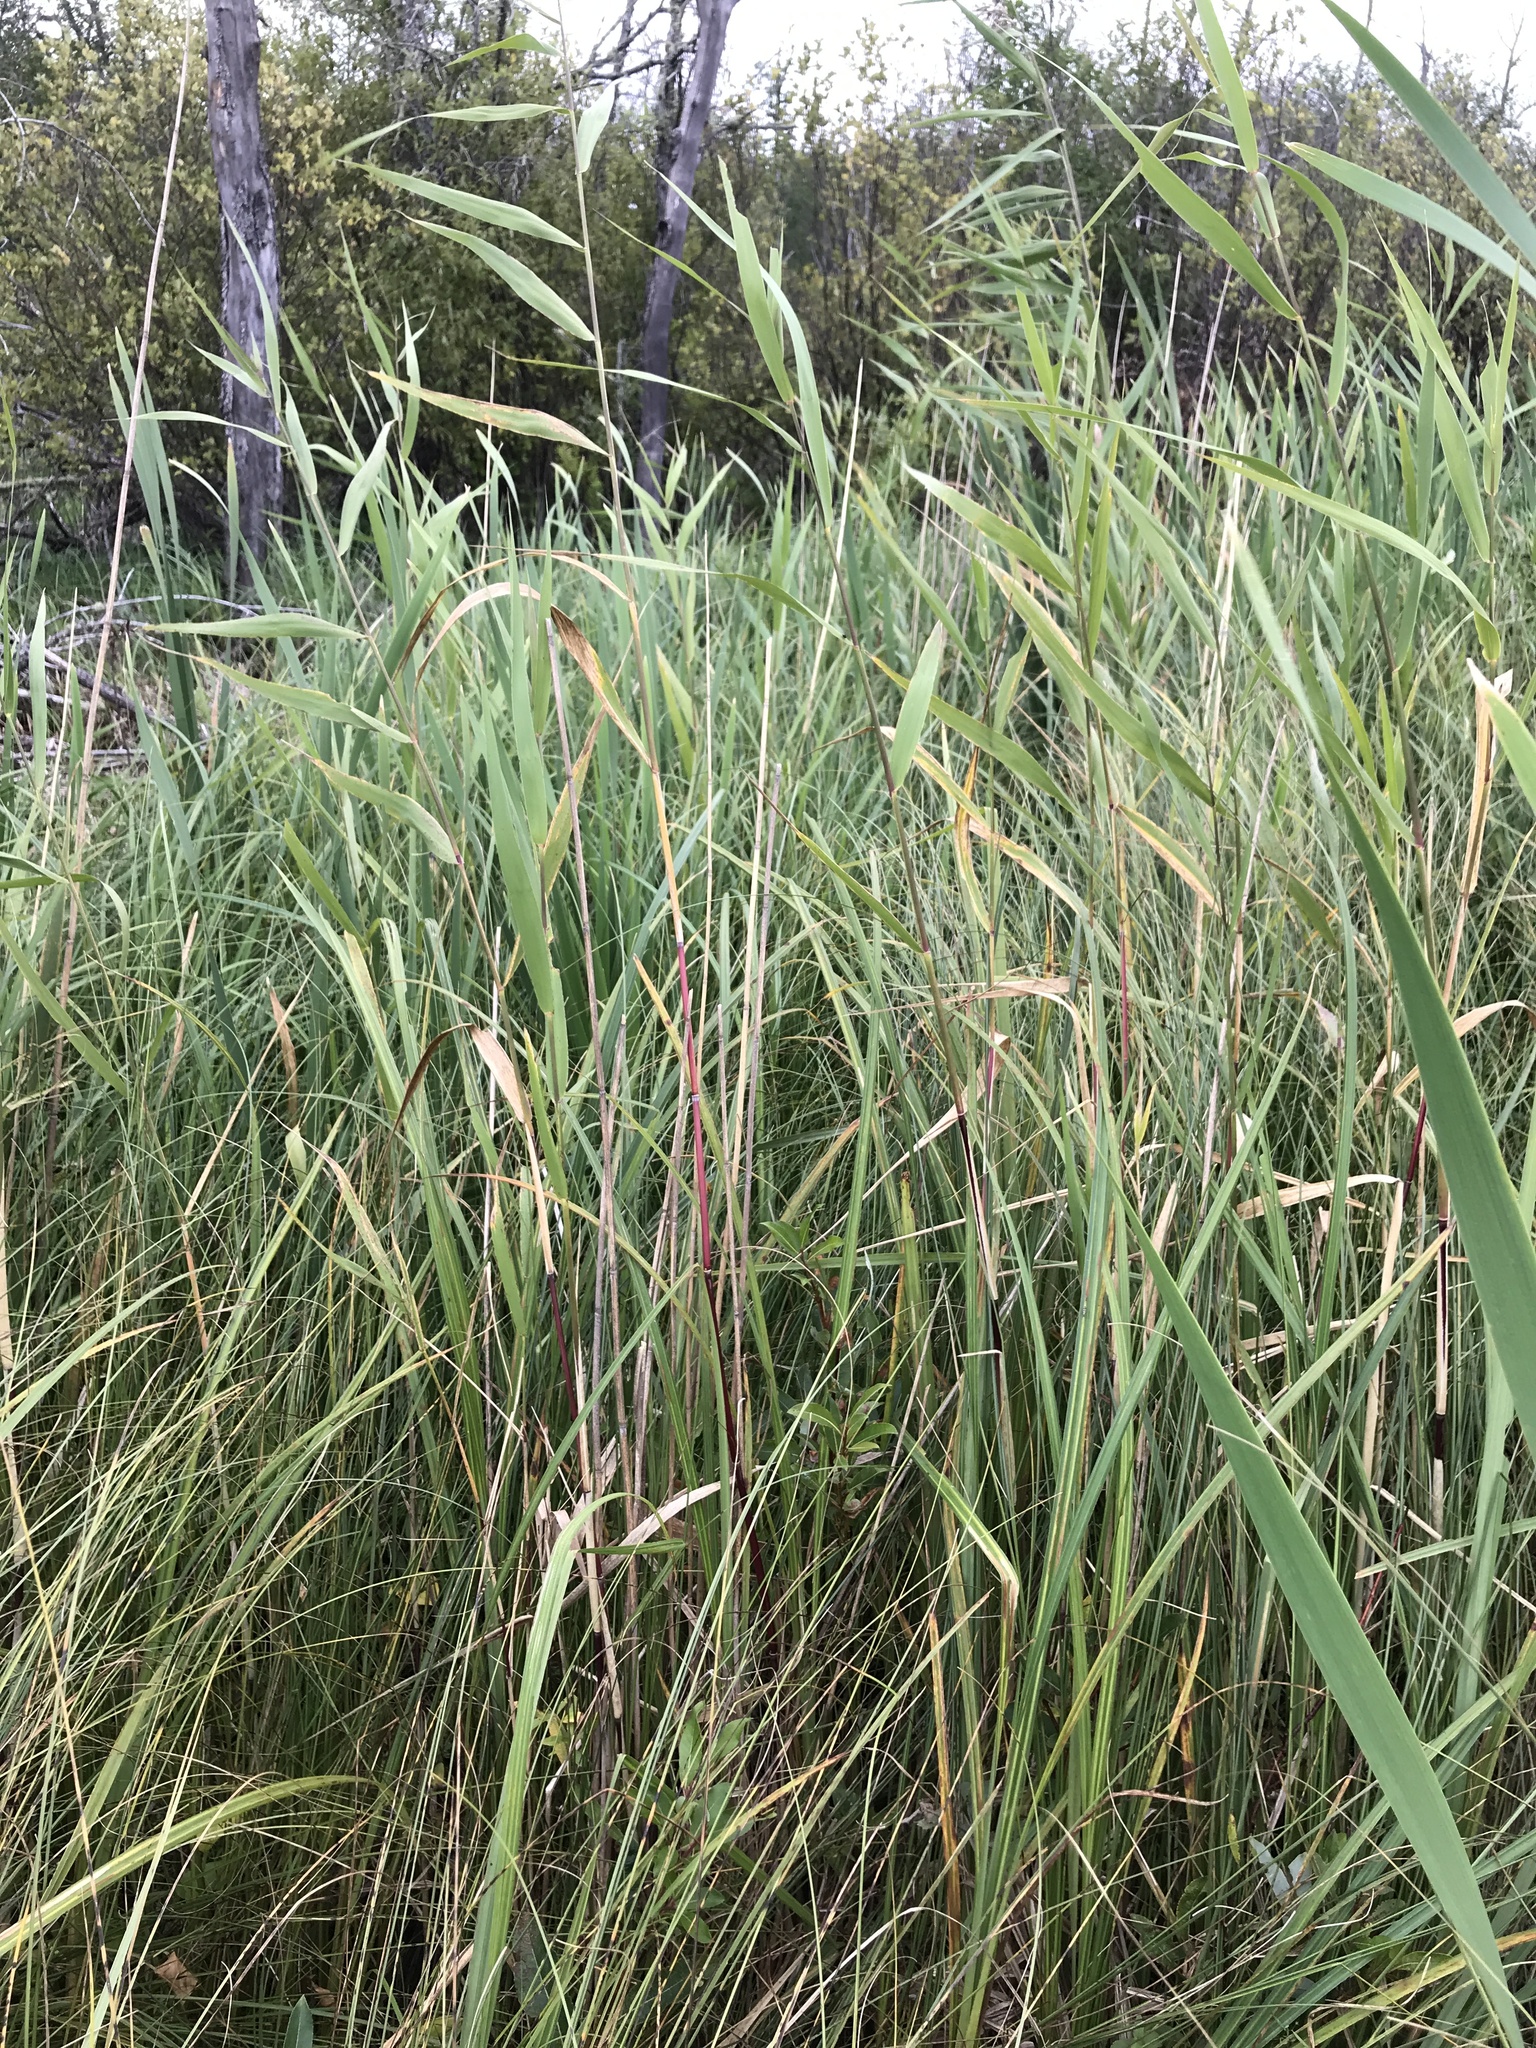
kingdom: Plantae
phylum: Tracheophyta
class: Liliopsida
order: Poales
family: Poaceae
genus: Phragmites
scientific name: Phragmites australis
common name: Common reed
